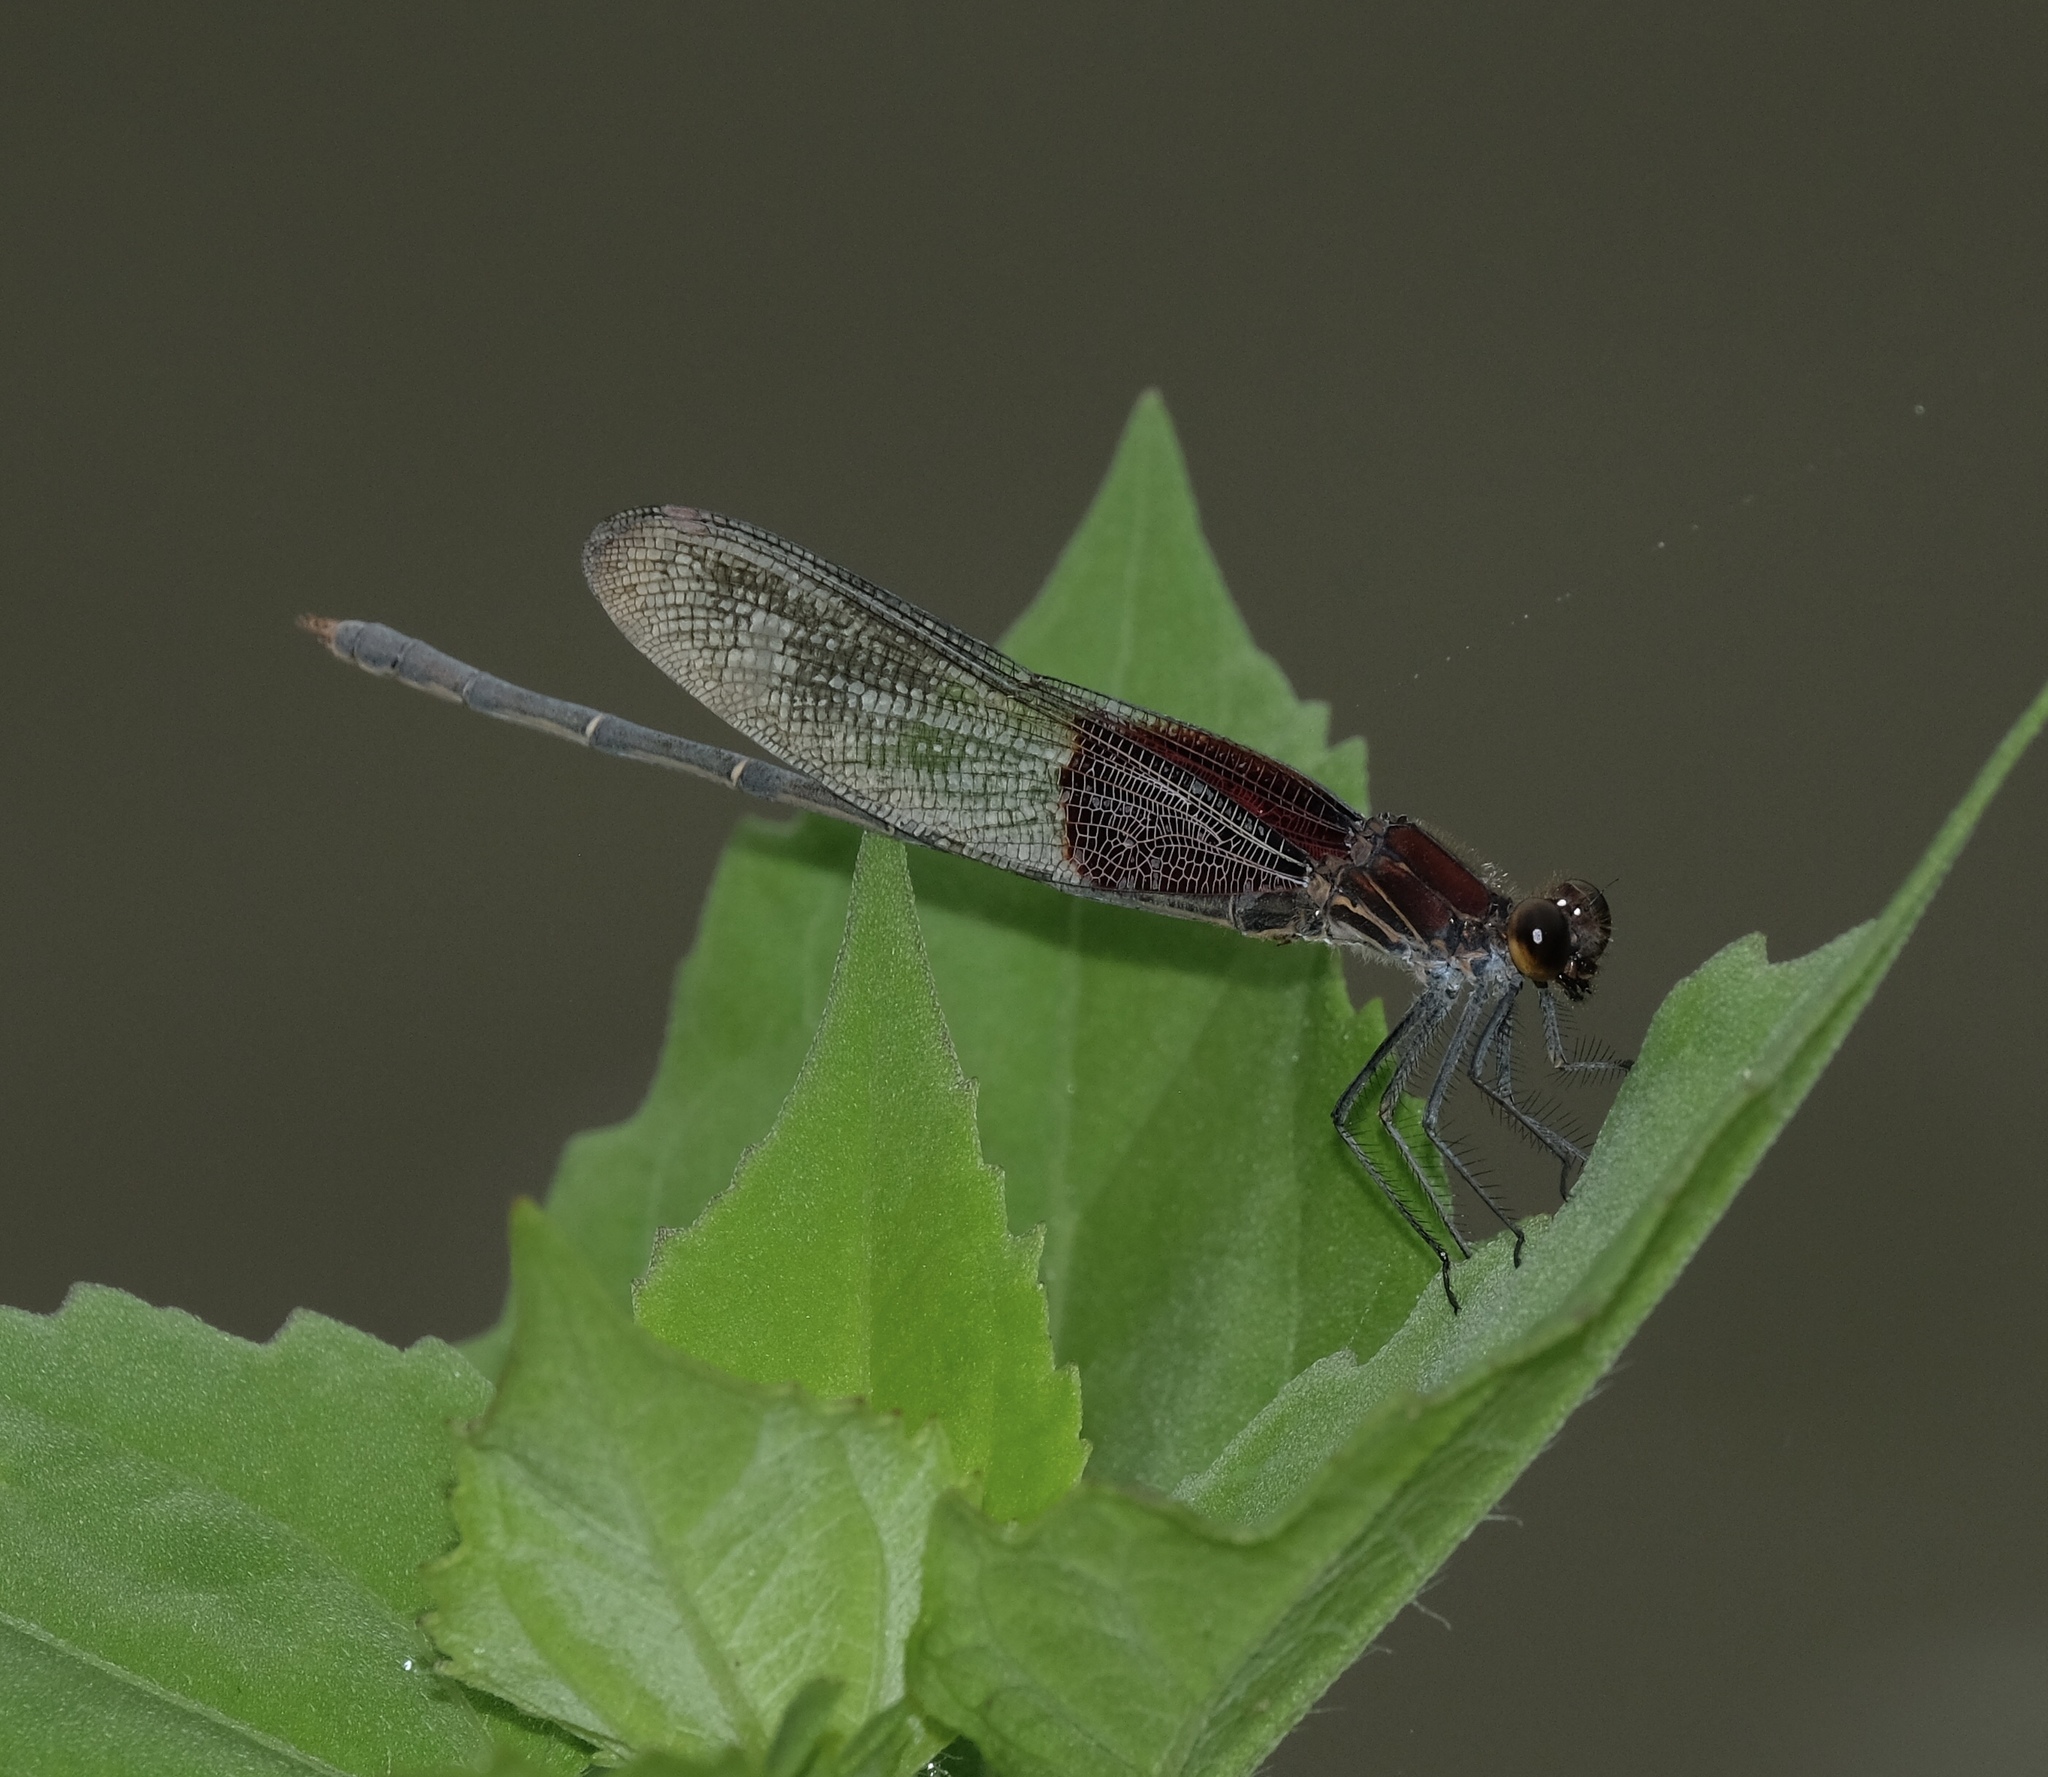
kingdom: Animalia
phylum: Arthropoda
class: Insecta
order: Odonata
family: Calopterygidae
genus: Hetaerina
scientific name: Hetaerina americana
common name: American rubyspot
